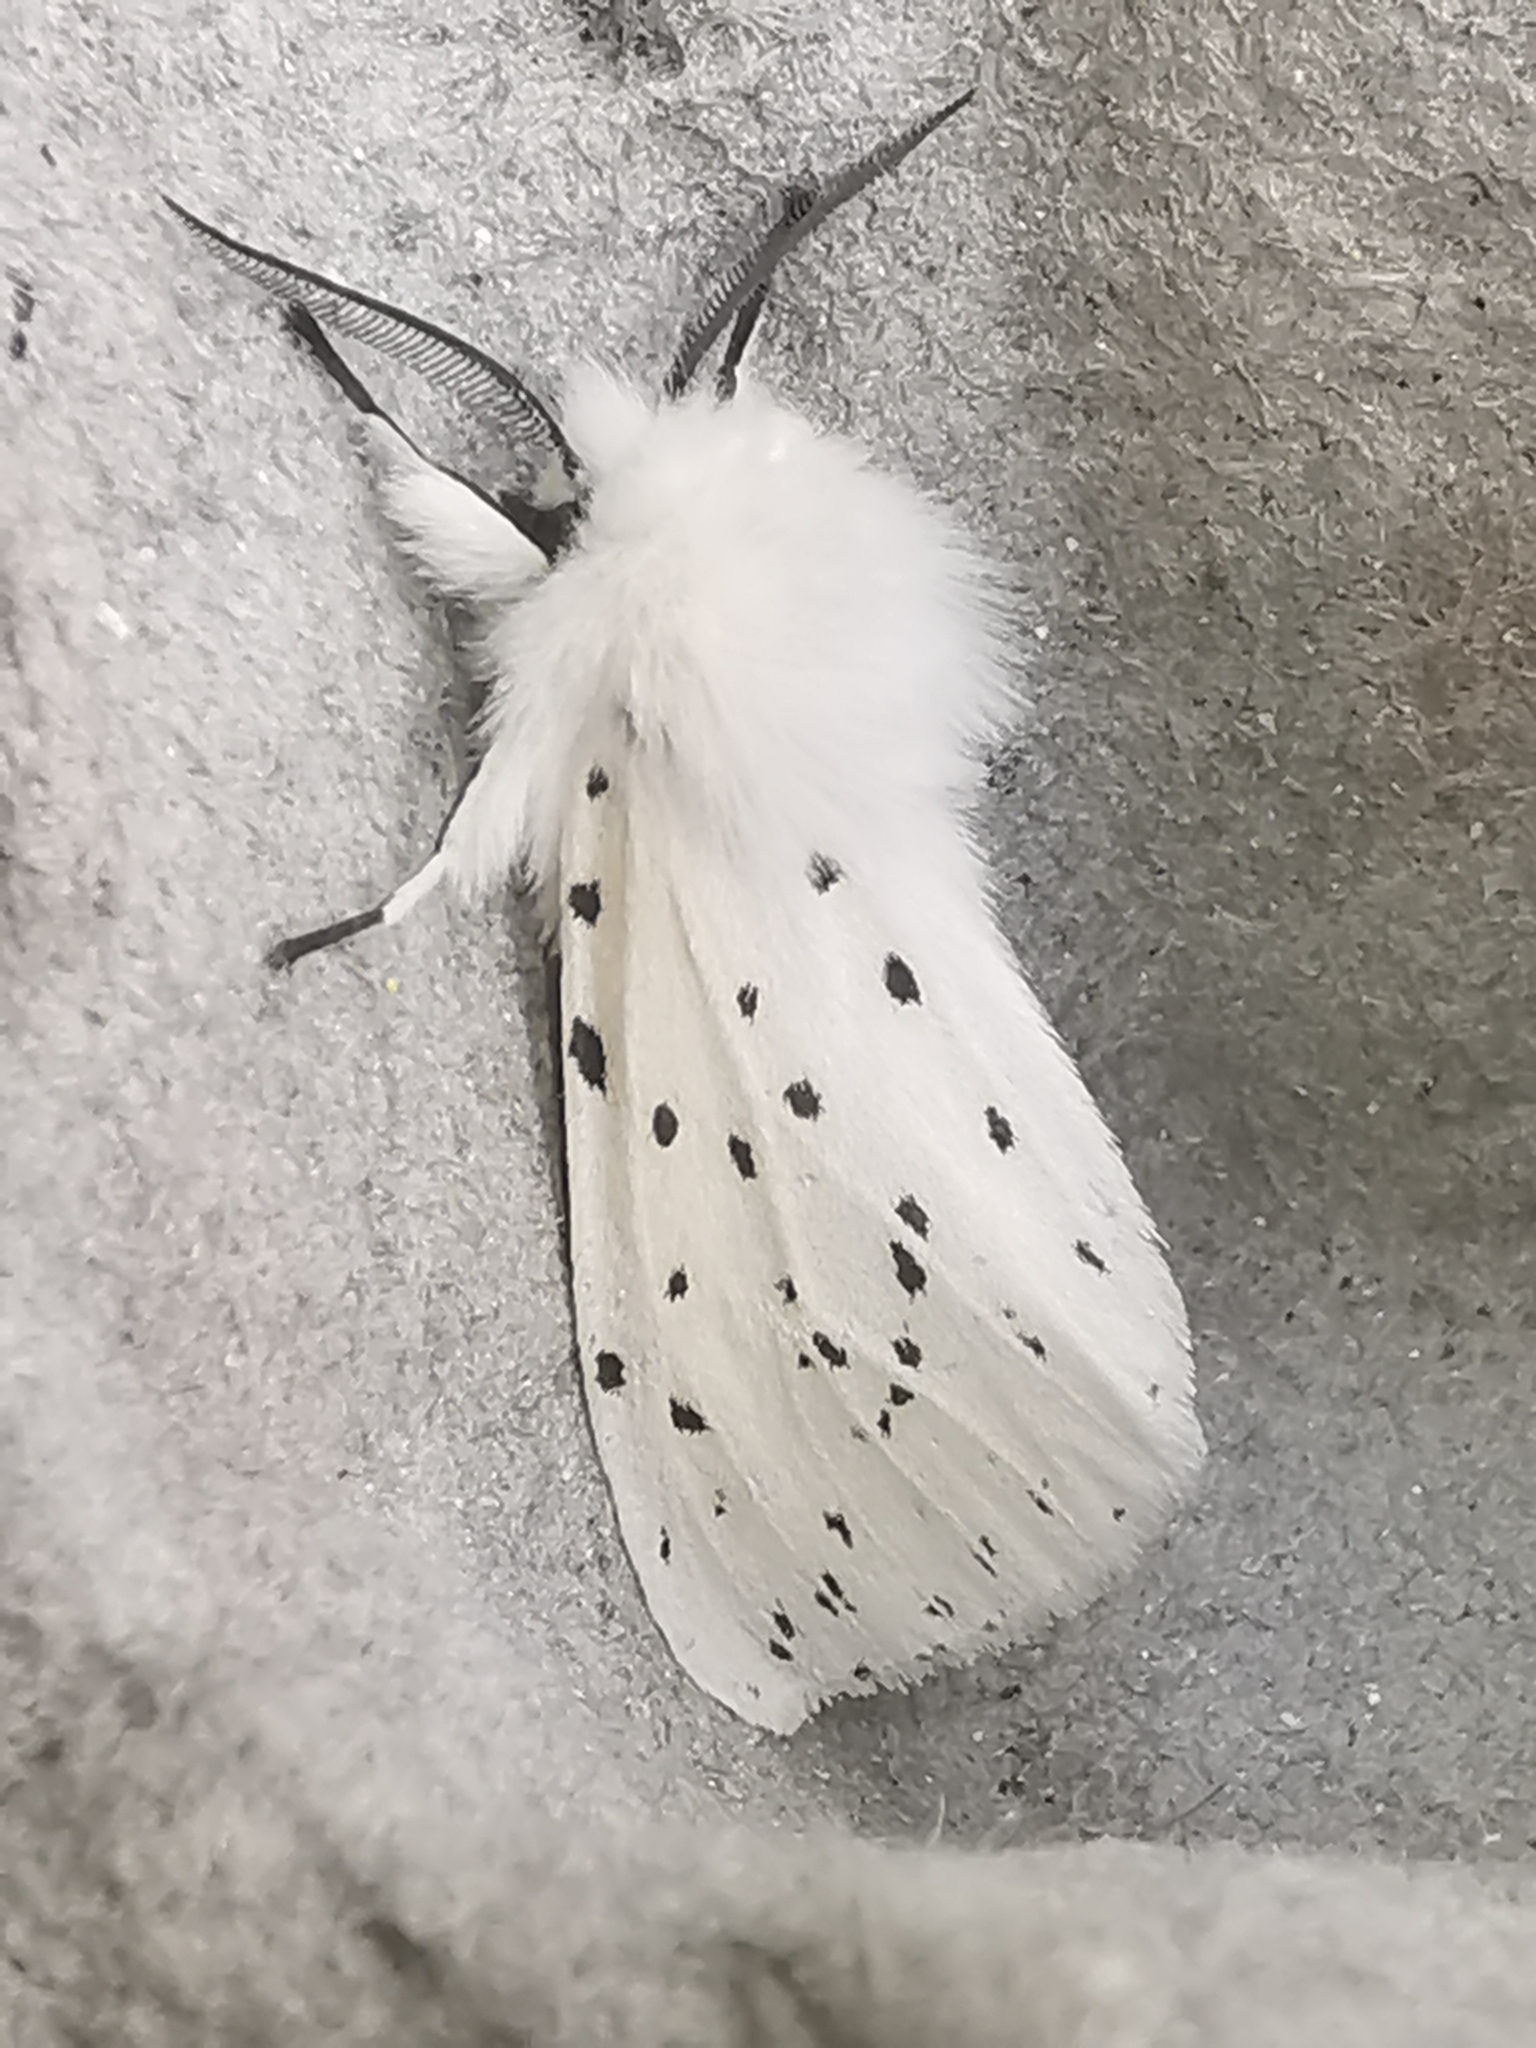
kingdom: Animalia
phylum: Arthropoda
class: Insecta
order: Lepidoptera
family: Erebidae
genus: Spilosoma
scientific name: Spilosoma lubricipeda
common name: White ermine
